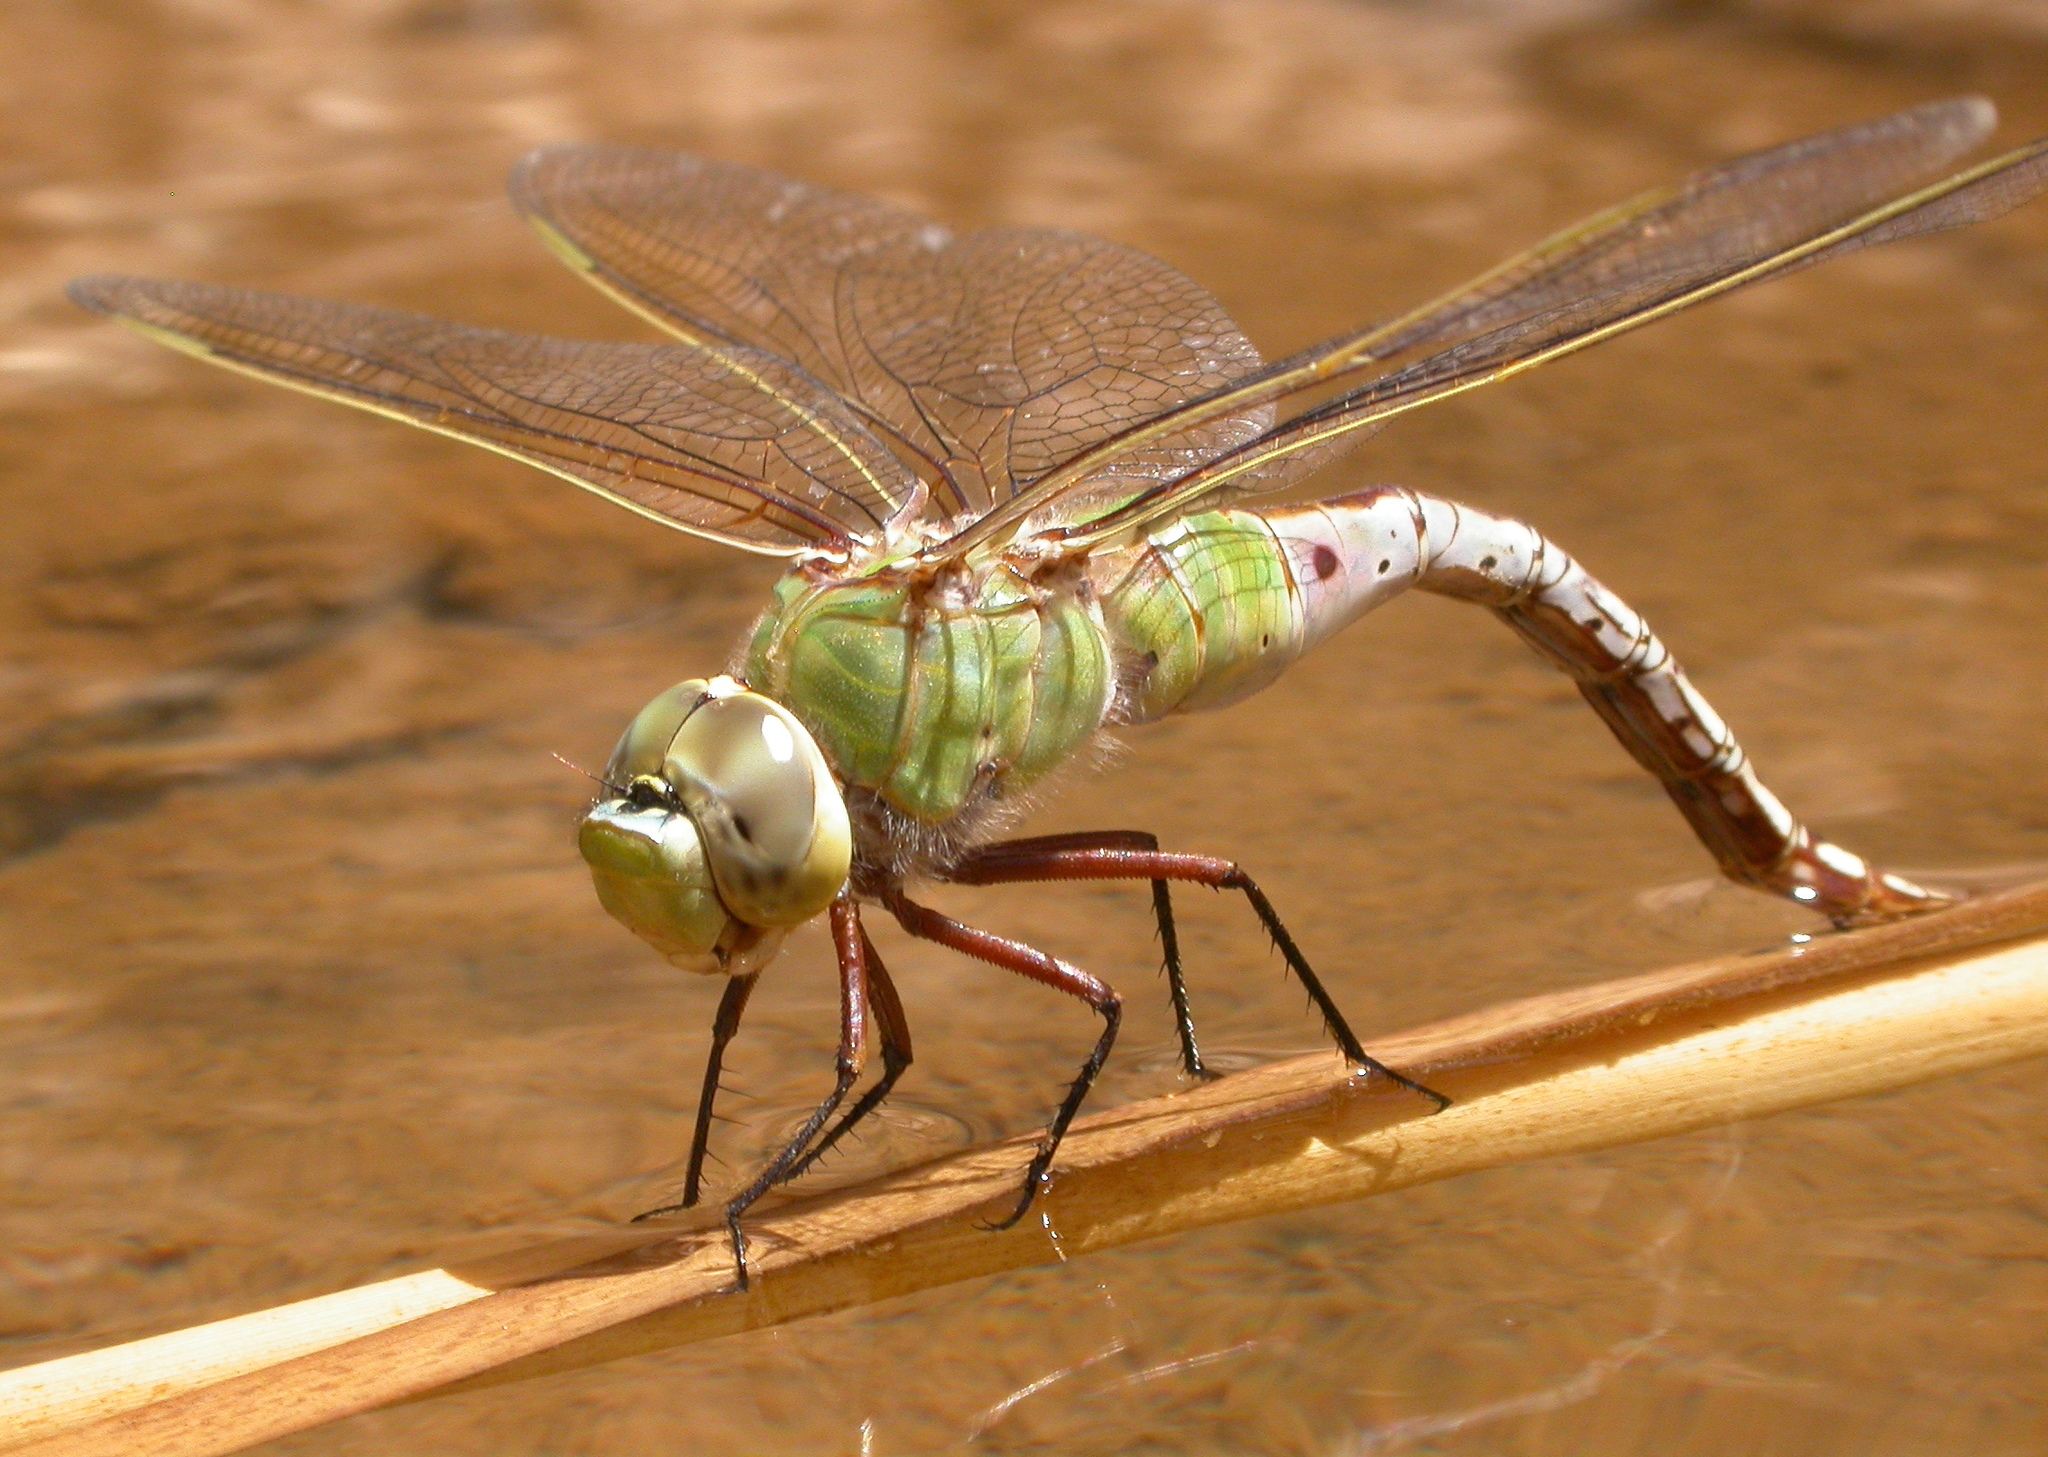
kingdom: Animalia
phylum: Arthropoda
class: Insecta
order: Odonata
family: Aeshnidae
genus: Anax
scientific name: Anax junius
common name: Common green darner
